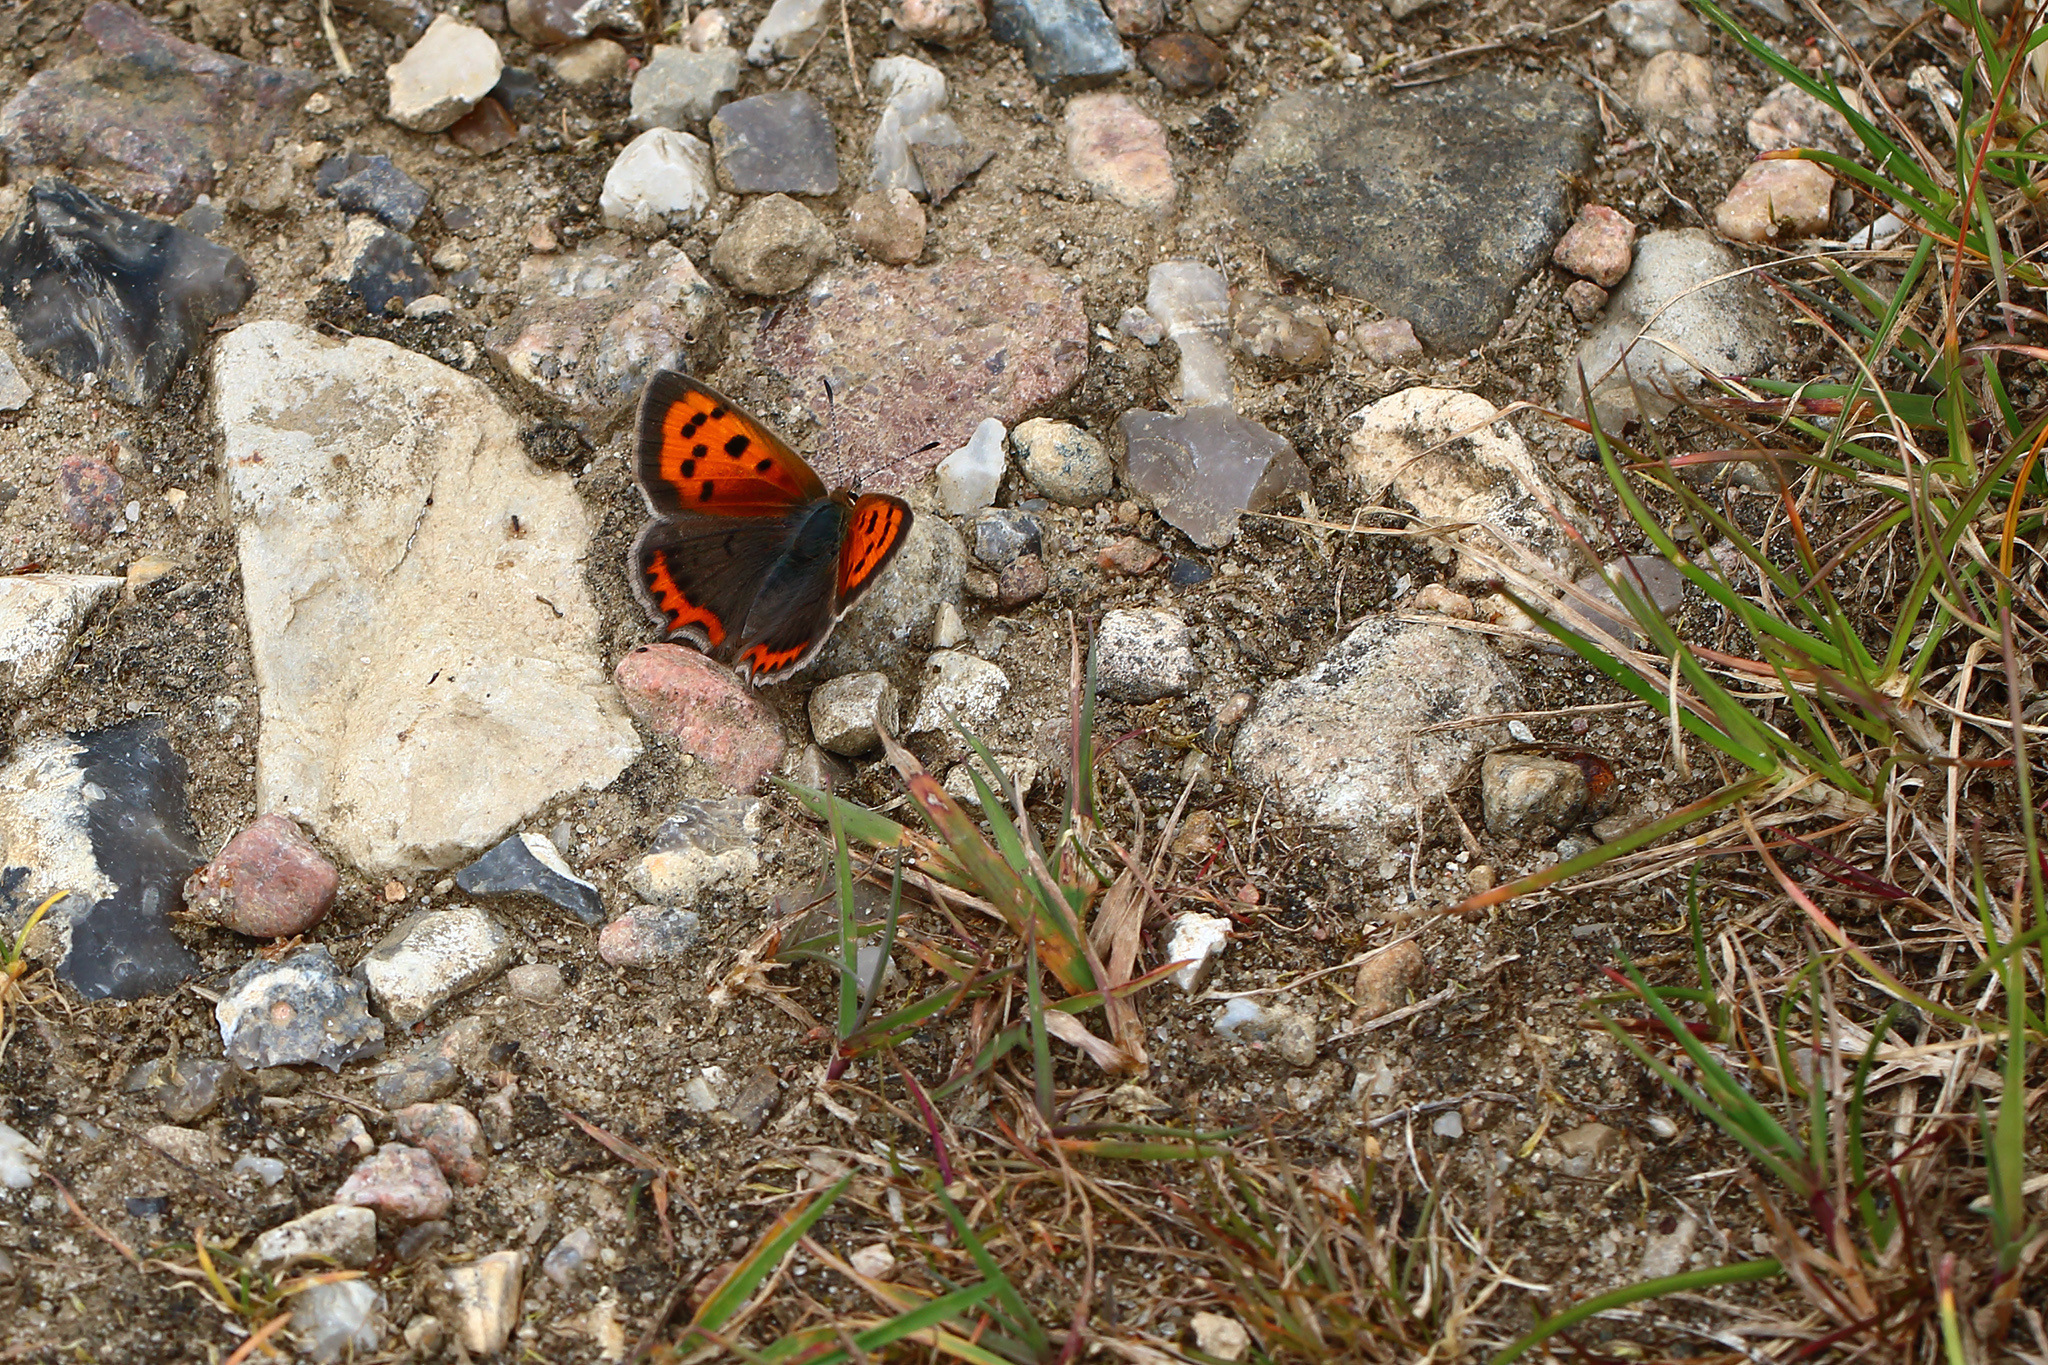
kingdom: Animalia
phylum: Arthropoda
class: Insecta
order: Lepidoptera
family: Lycaenidae
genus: Lycaena
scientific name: Lycaena phlaeas
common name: Small copper
